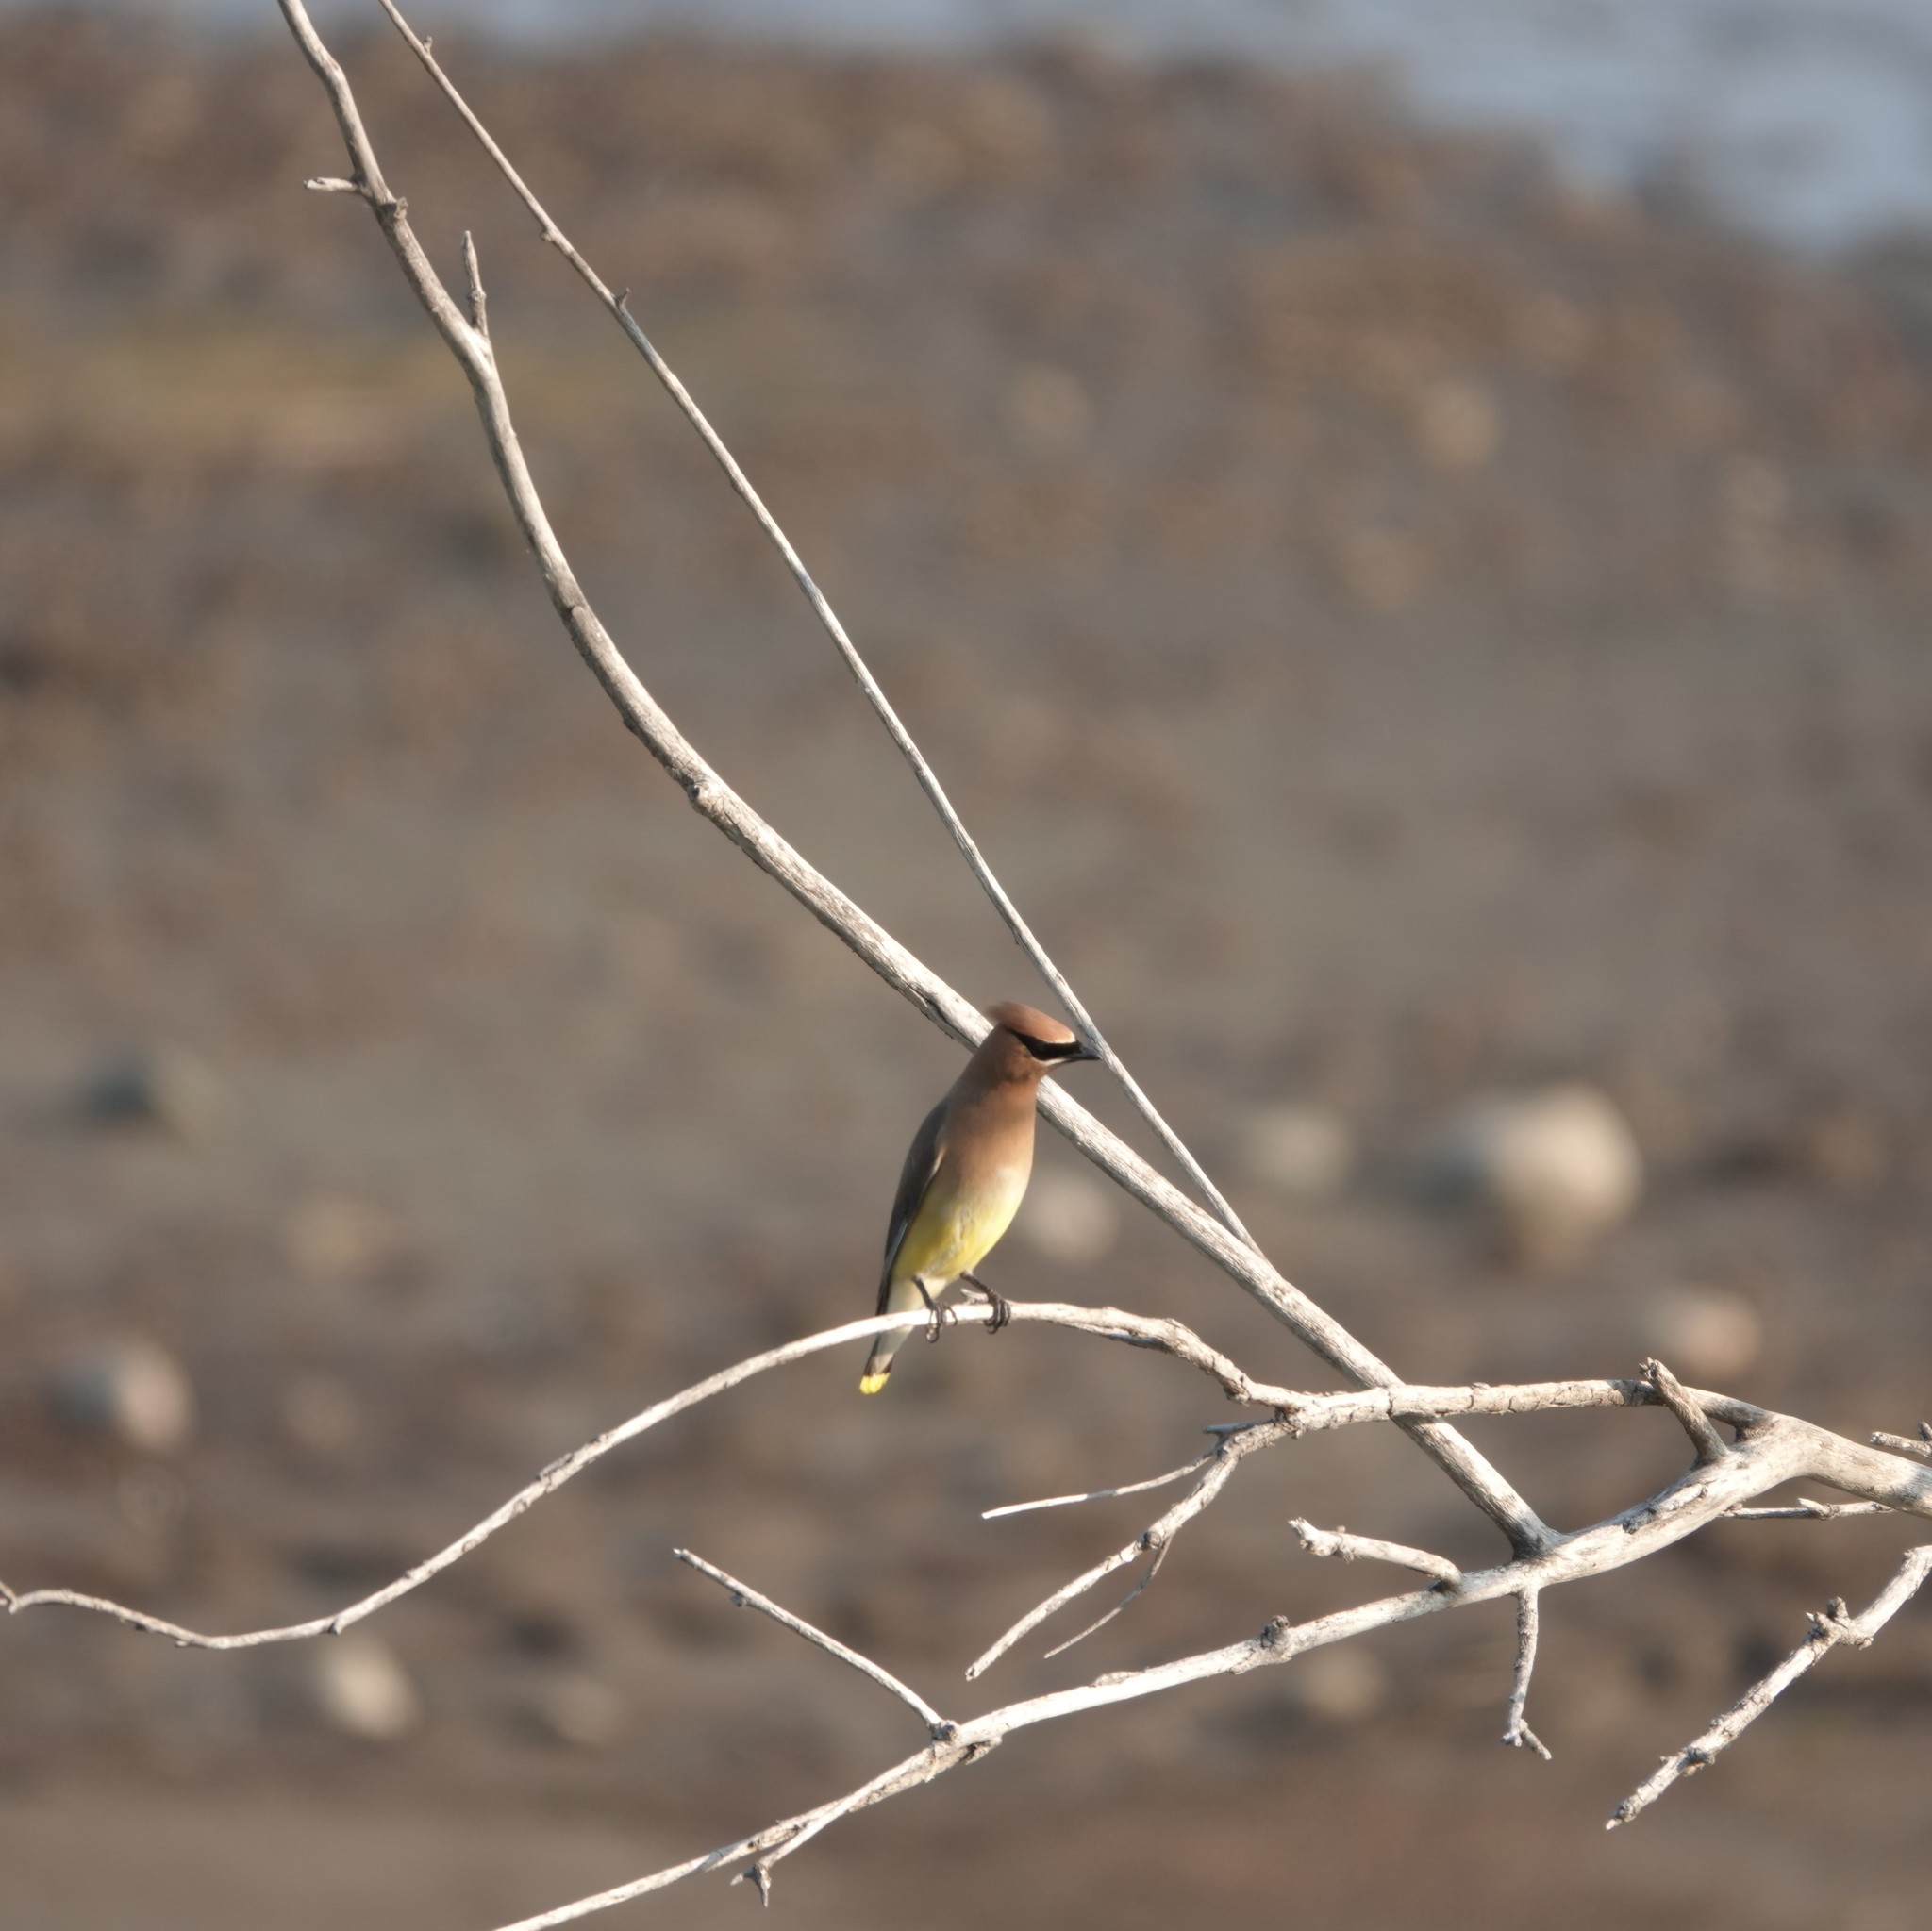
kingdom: Animalia
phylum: Chordata
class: Aves
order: Passeriformes
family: Bombycillidae
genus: Bombycilla
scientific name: Bombycilla cedrorum
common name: Cedar waxwing
